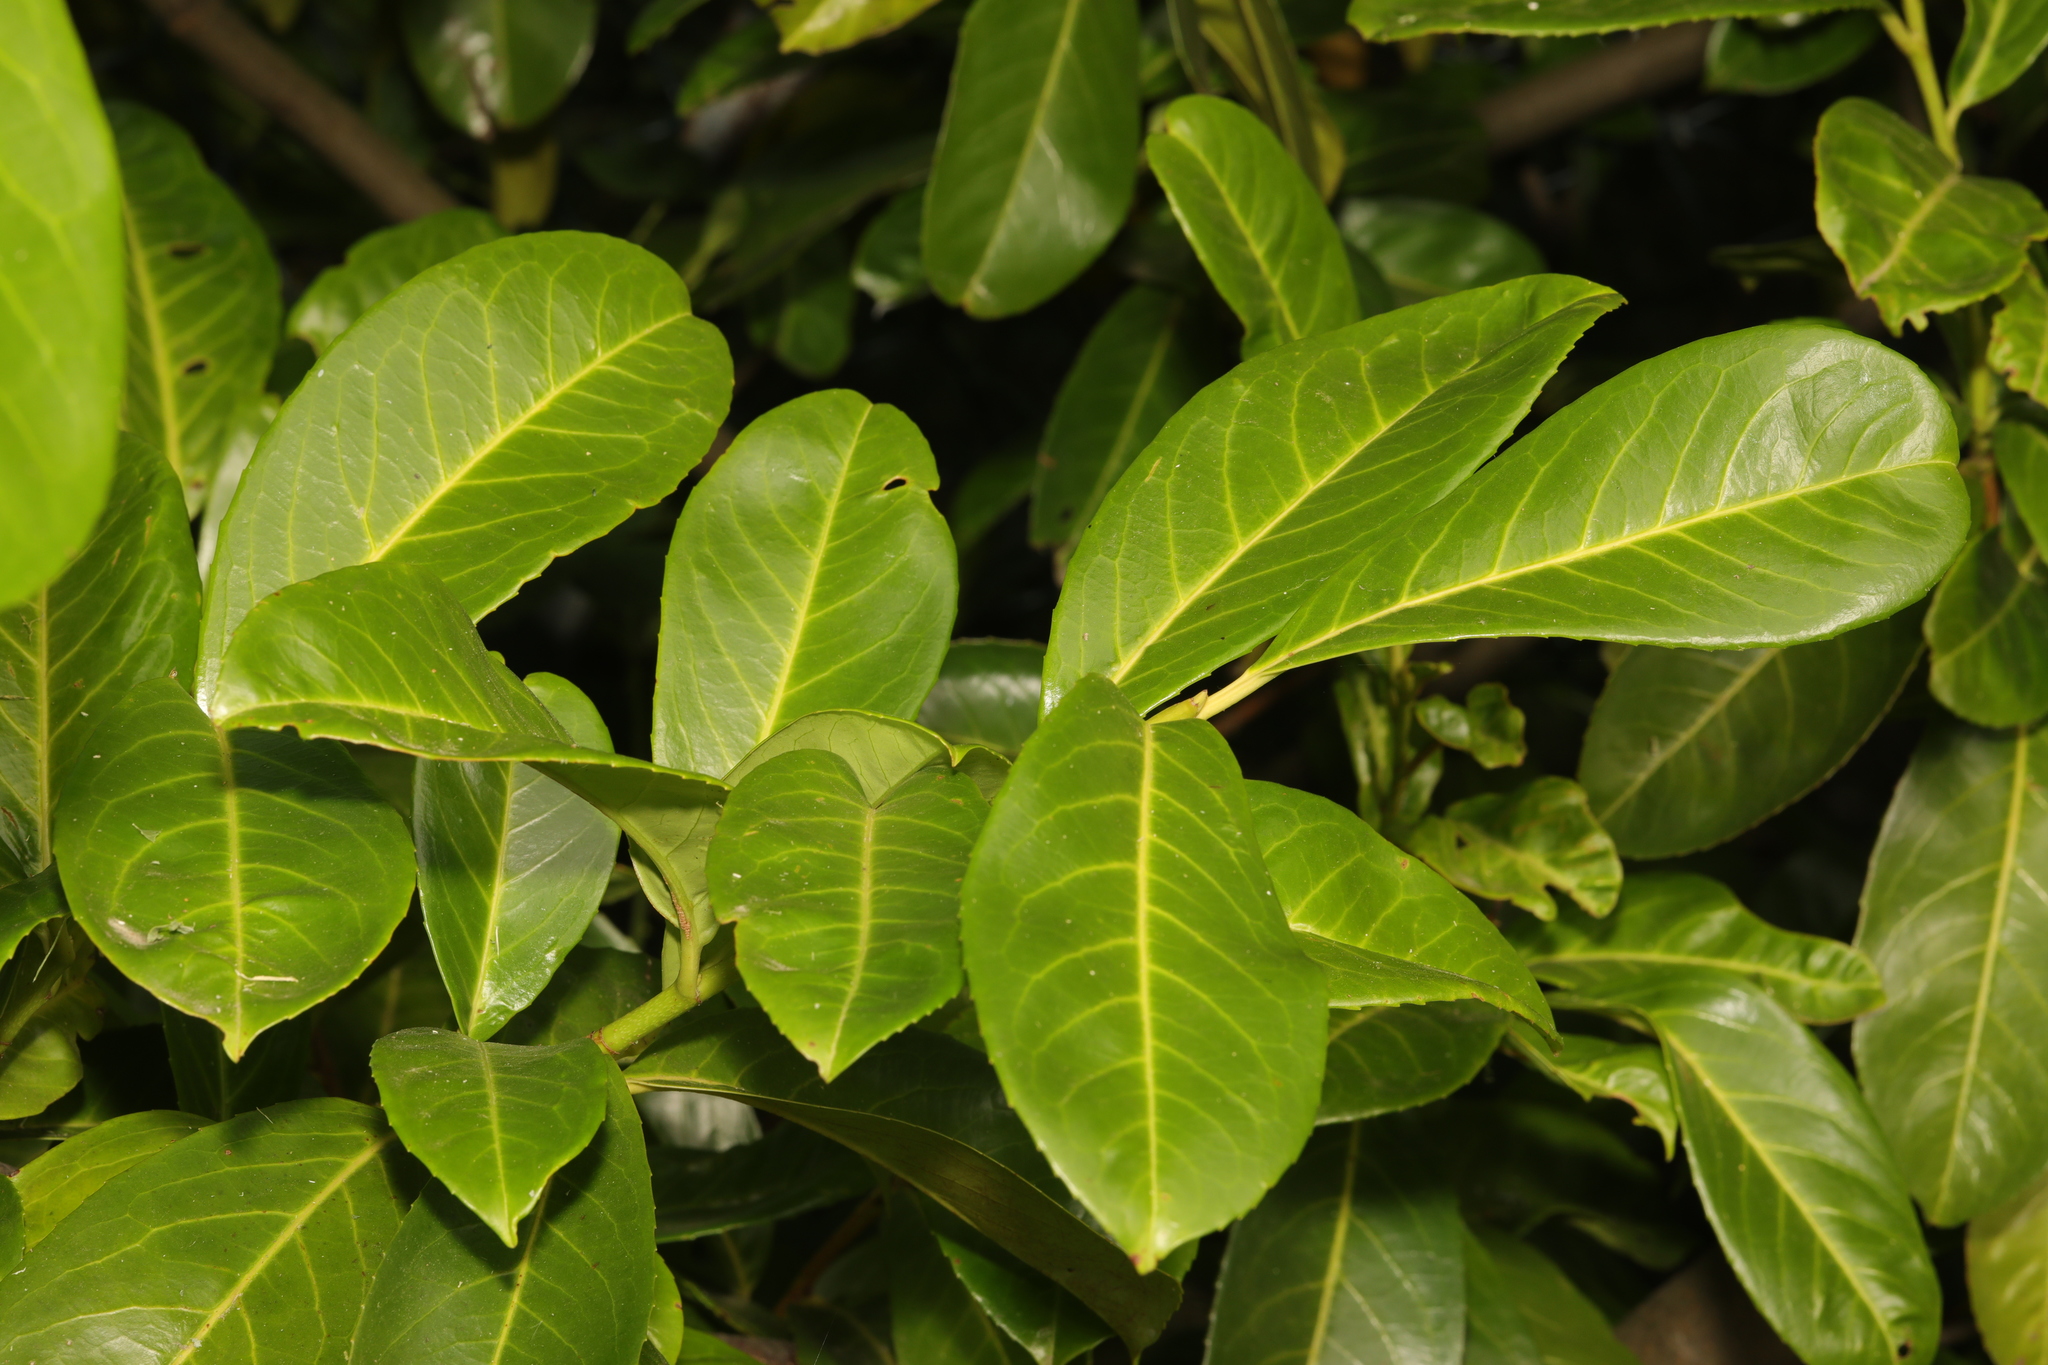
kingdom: Plantae
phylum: Tracheophyta
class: Magnoliopsida
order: Rosales
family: Rosaceae
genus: Prunus
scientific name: Prunus laurocerasus
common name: Cherry laurel
